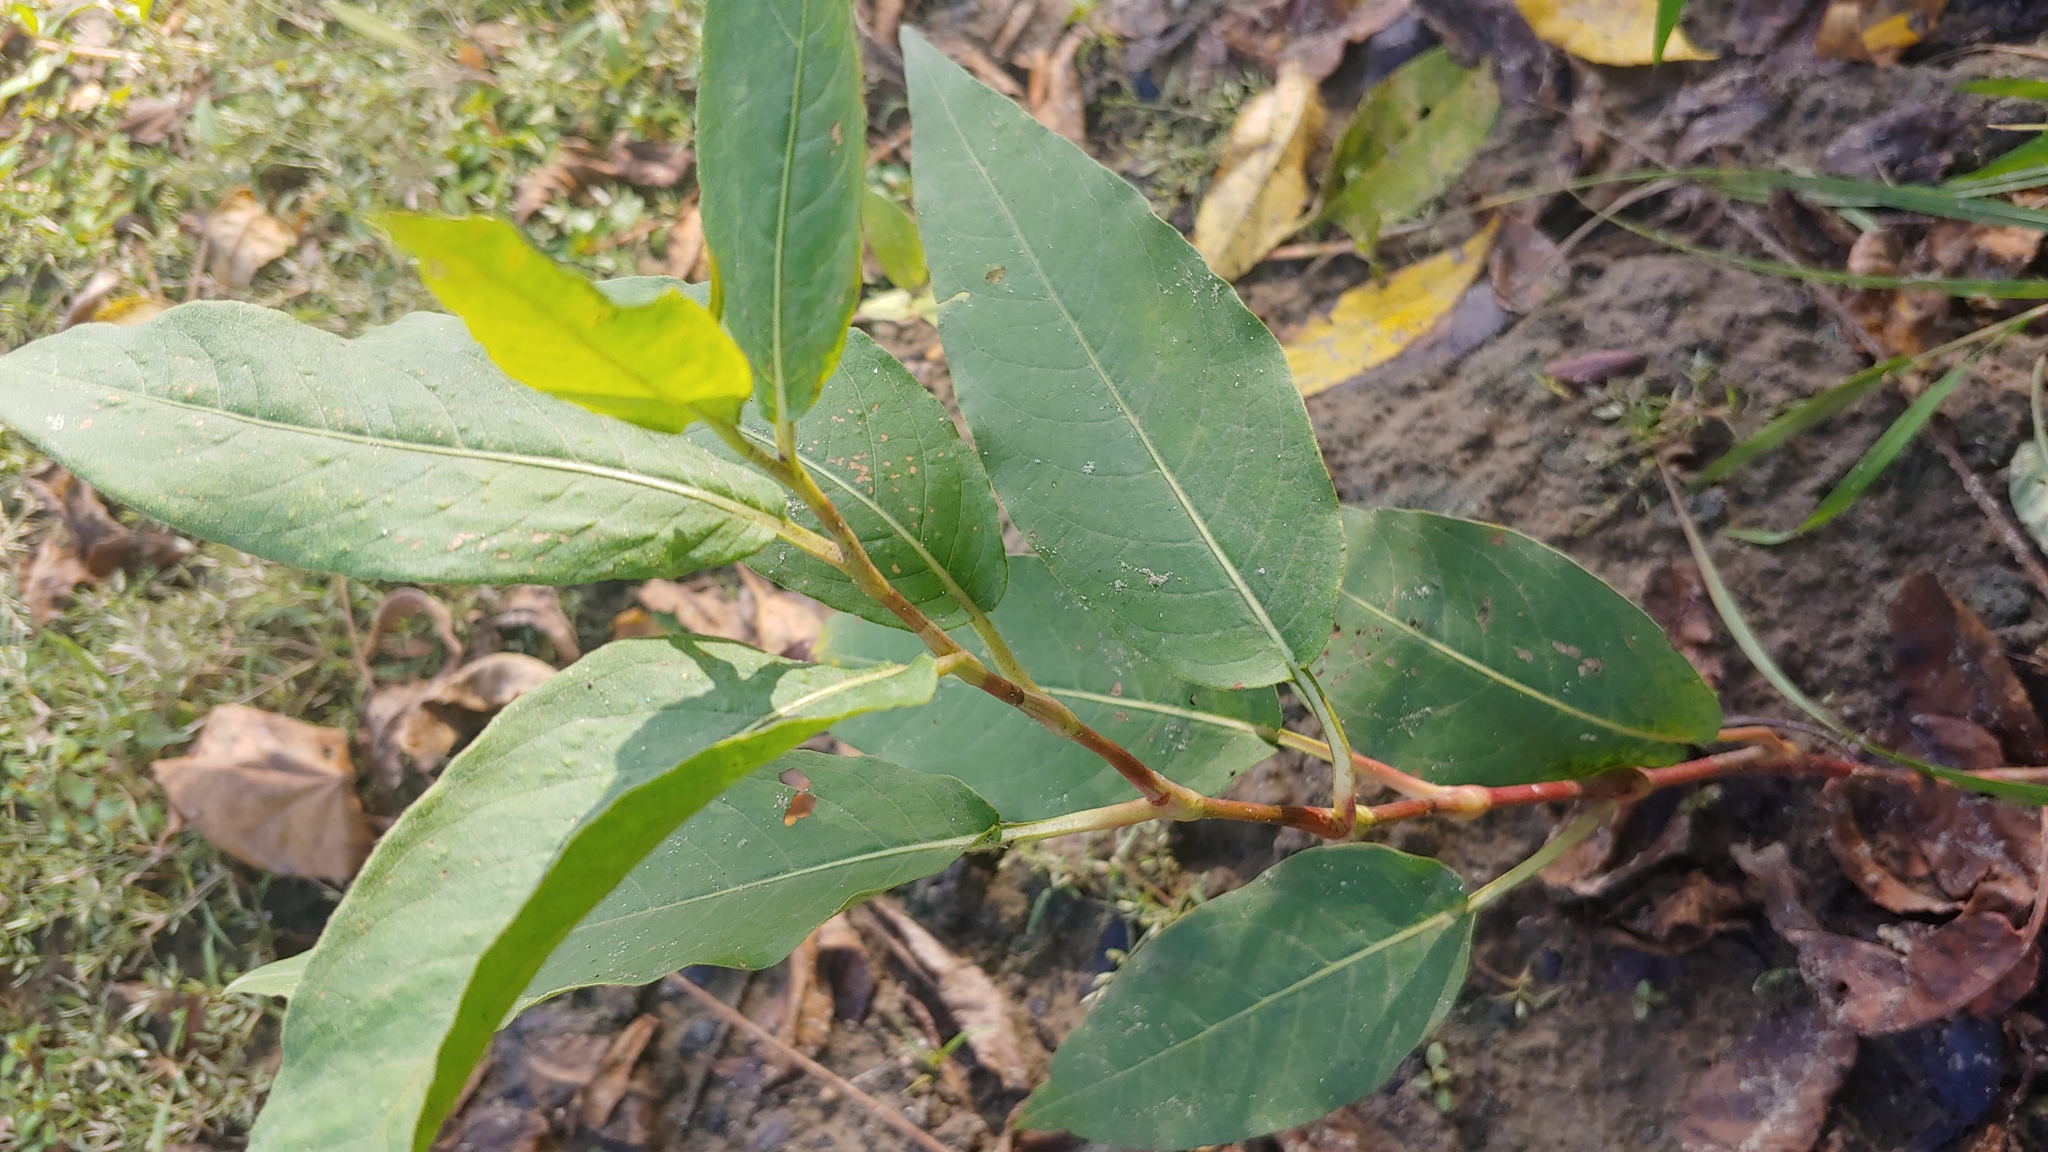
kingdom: Plantae
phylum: Tracheophyta
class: Magnoliopsida
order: Caryophyllales
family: Polygonaceae
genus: Persicaria
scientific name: Persicaria amphibia
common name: Amphibious bistort
